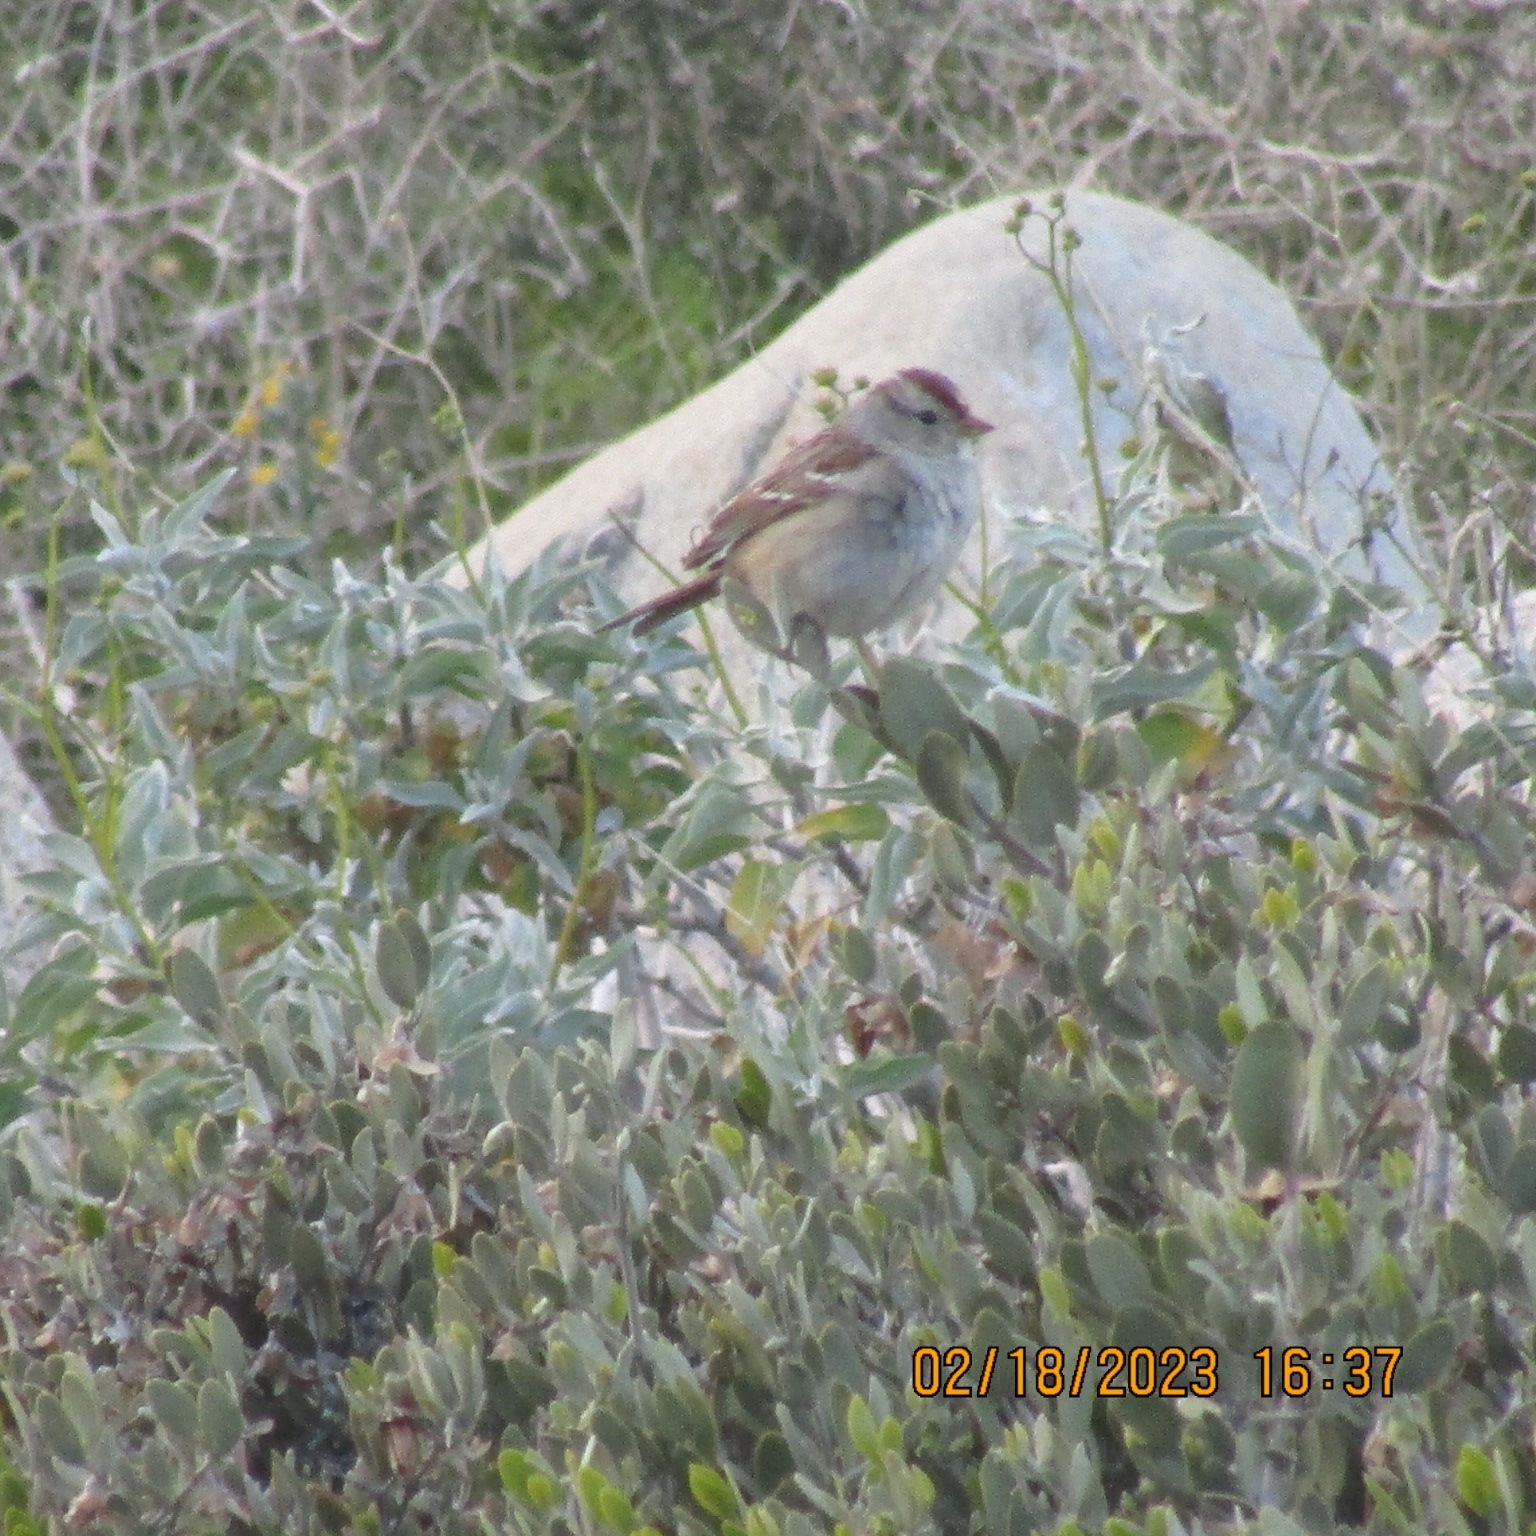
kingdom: Animalia
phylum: Chordata
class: Aves
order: Passeriformes
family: Passerellidae
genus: Zonotrichia
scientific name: Zonotrichia leucophrys
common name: White-crowned sparrow
